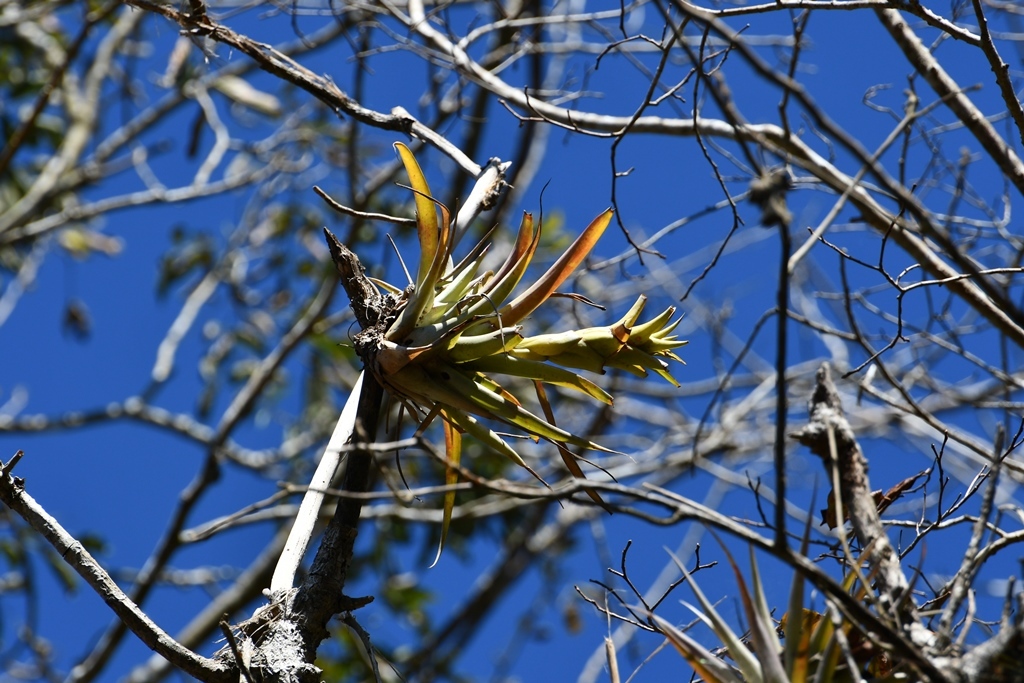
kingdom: Plantae
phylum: Tracheophyta
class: Liliopsida
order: Poales
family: Bromeliaceae
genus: Tillandsia
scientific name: Tillandsia capitata
